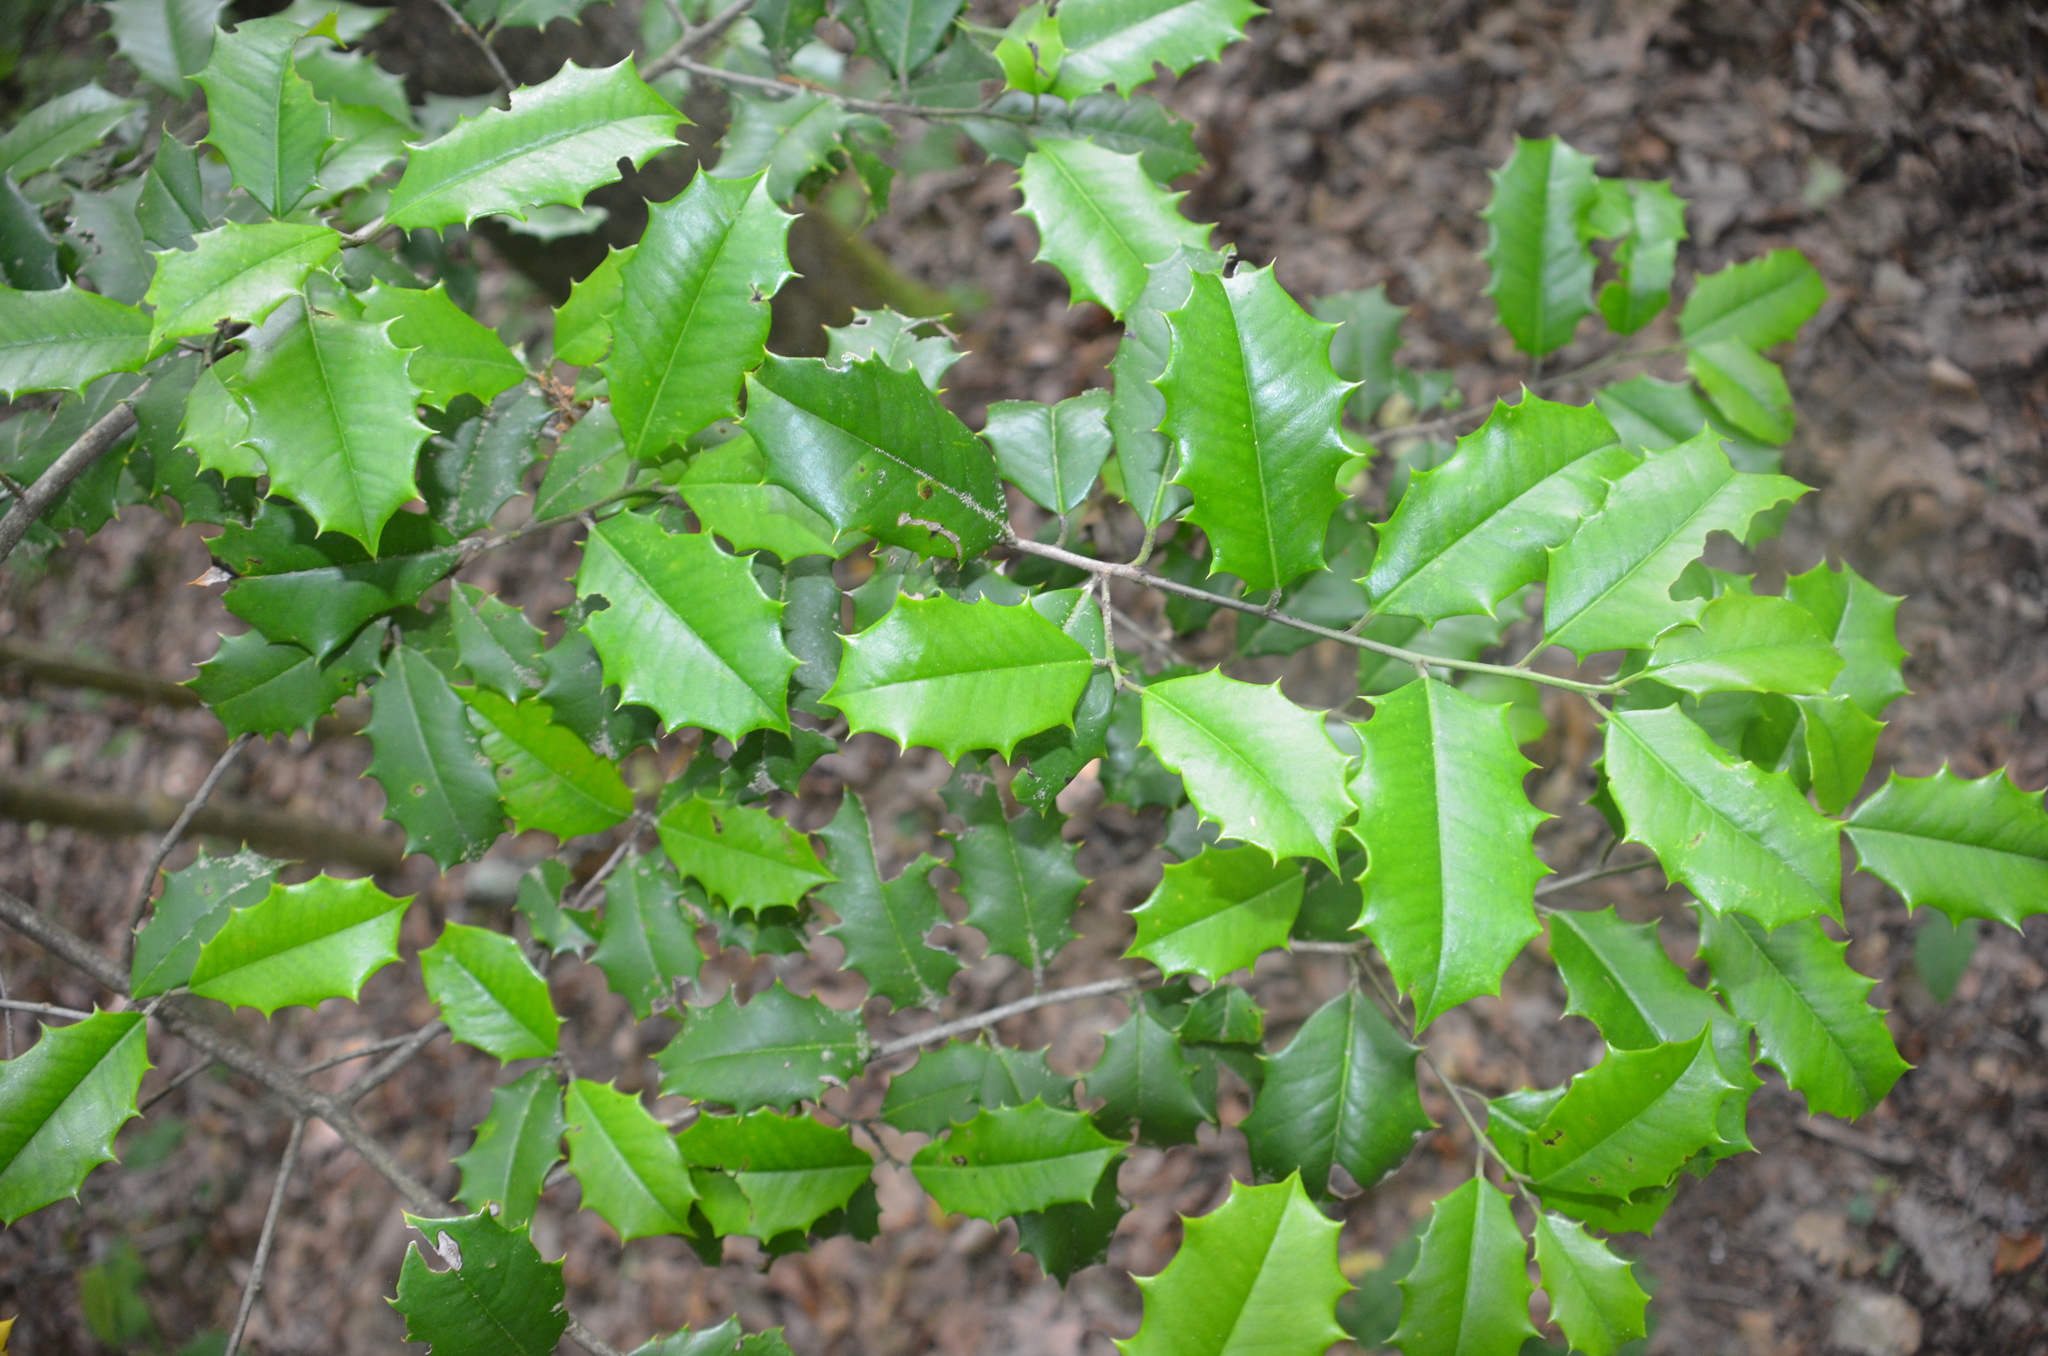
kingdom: Plantae
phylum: Tracheophyta
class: Magnoliopsida
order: Aquifoliales
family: Aquifoliaceae
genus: Ilex
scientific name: Ilex opaca
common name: American holly
